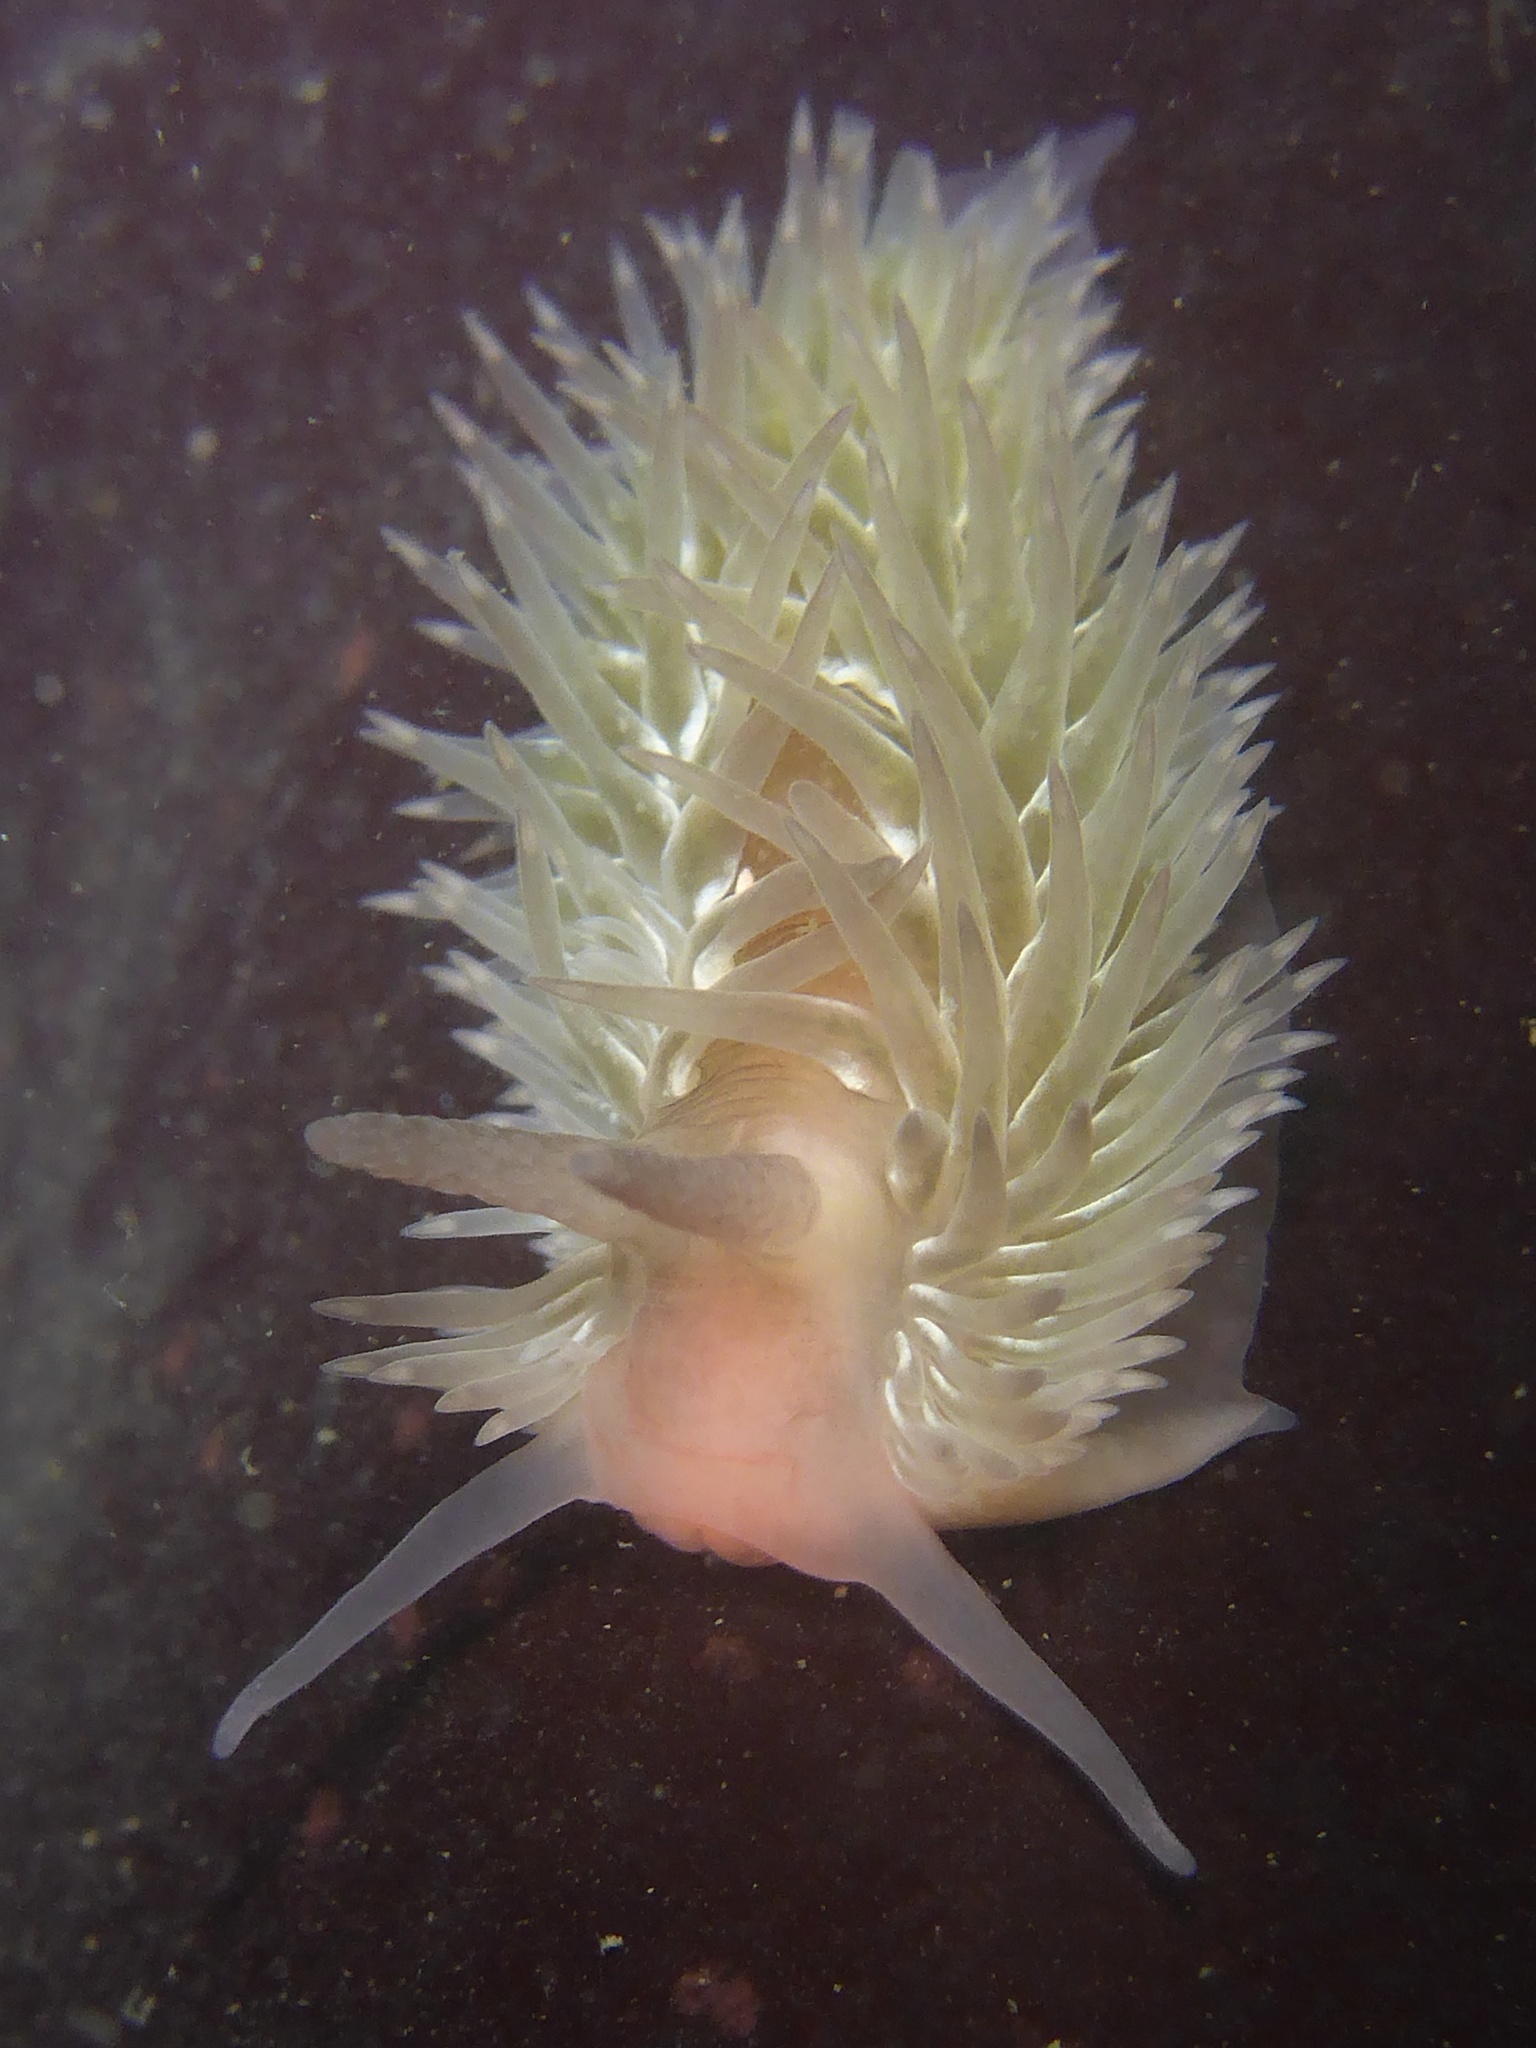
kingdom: Animalia
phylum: Mollusca
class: Gastropoda
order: Nudibranchia
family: Aeolidiidae
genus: Aeolidia
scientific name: Aeolidia loui
